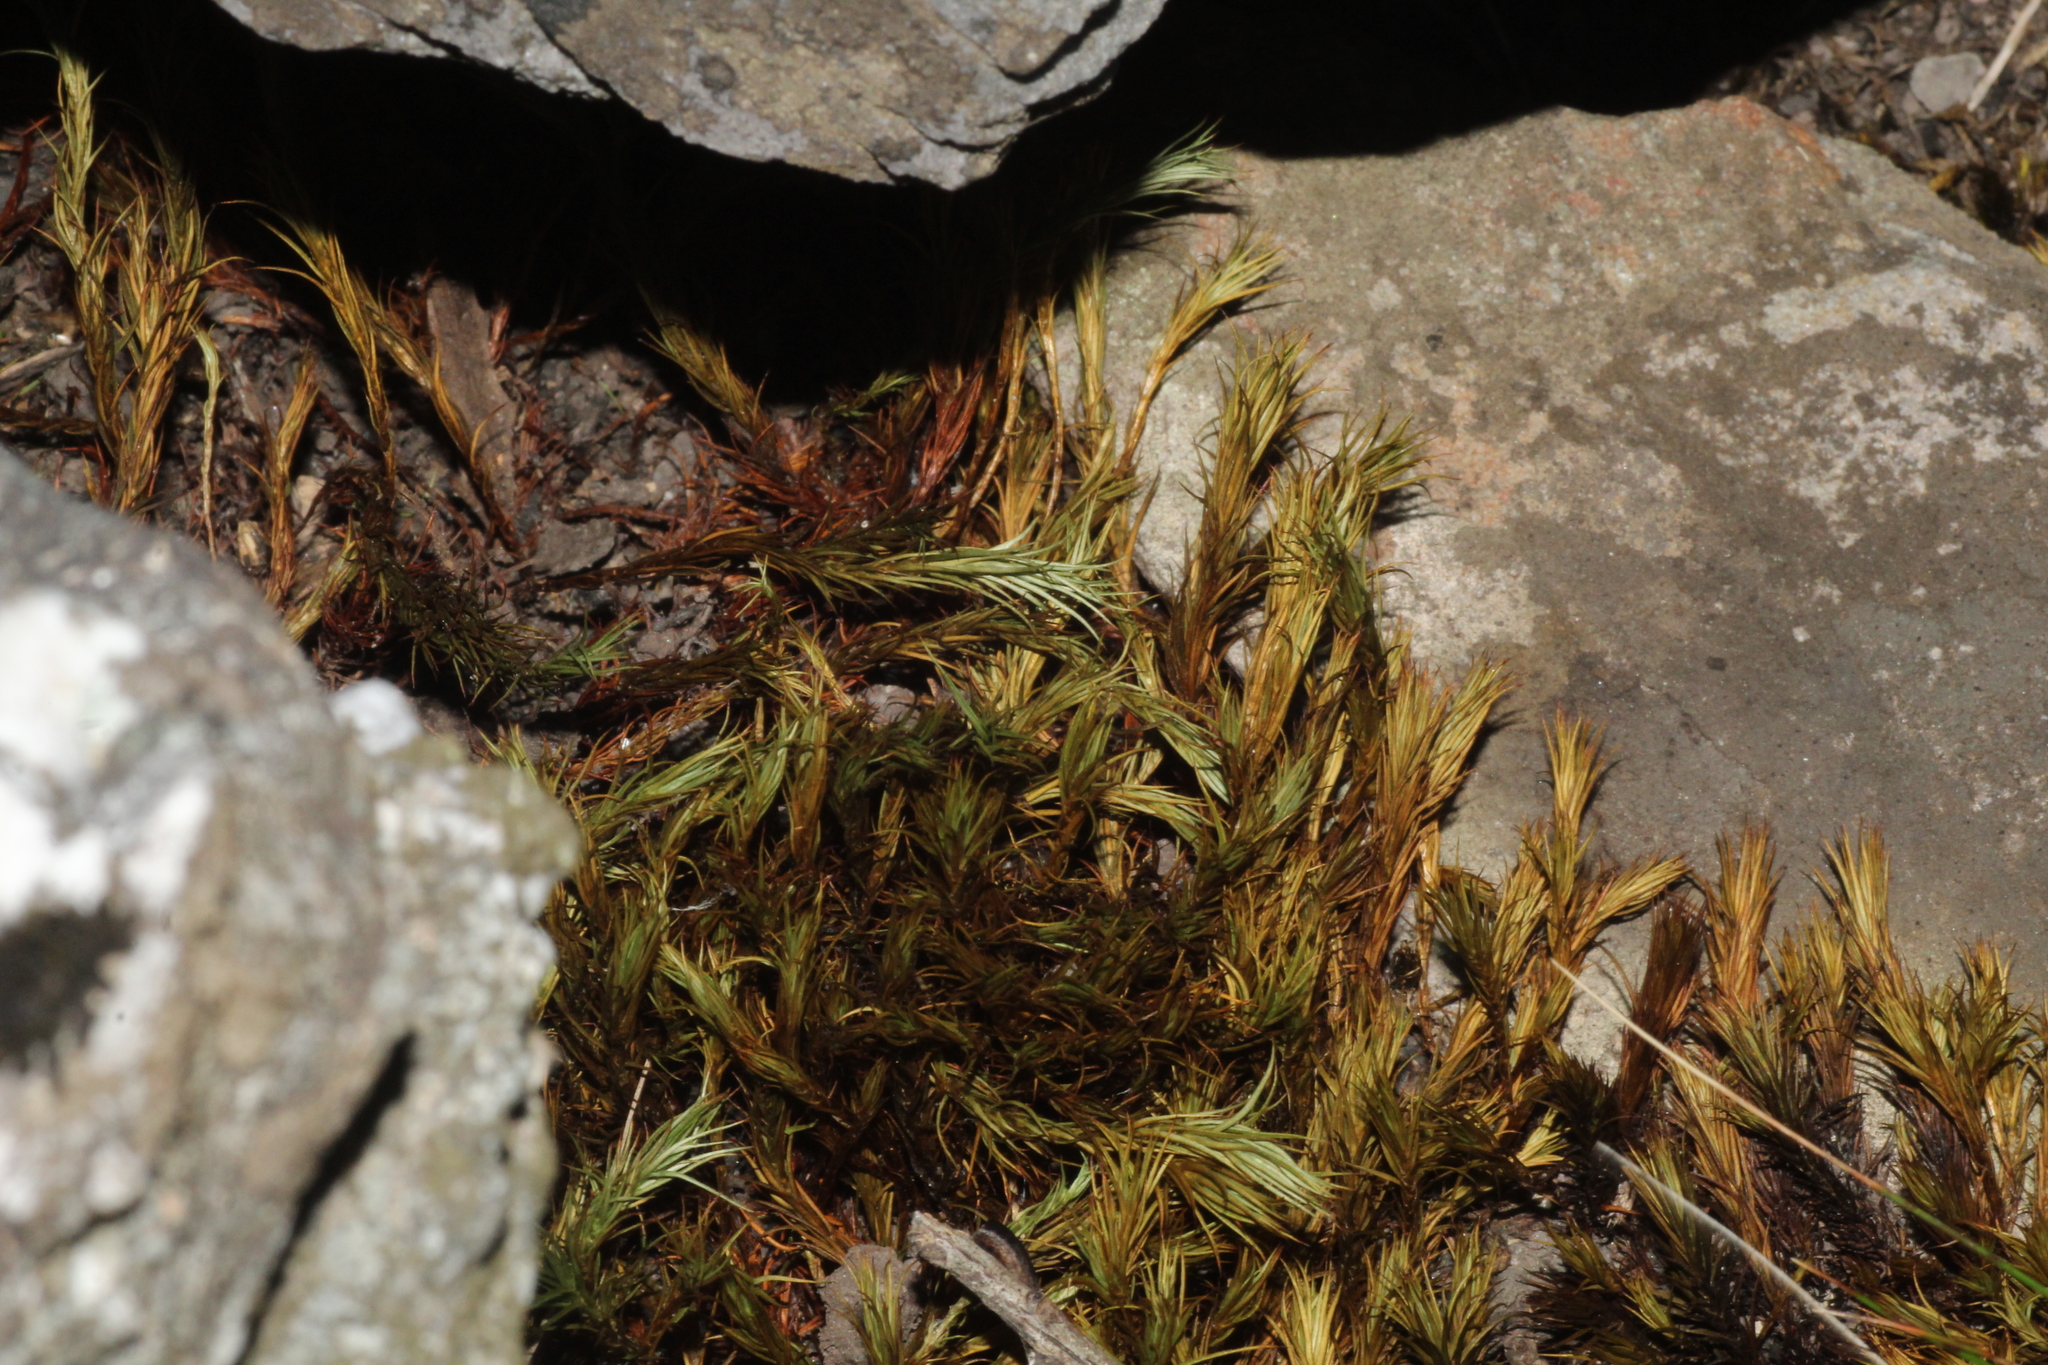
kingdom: Plantae
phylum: Bryophyta
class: Polytrichopsida
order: Polytrichales
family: Polytrichaceae
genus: Polytrichastrum
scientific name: Polytrichastrum alpinum
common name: Alpine haircap
